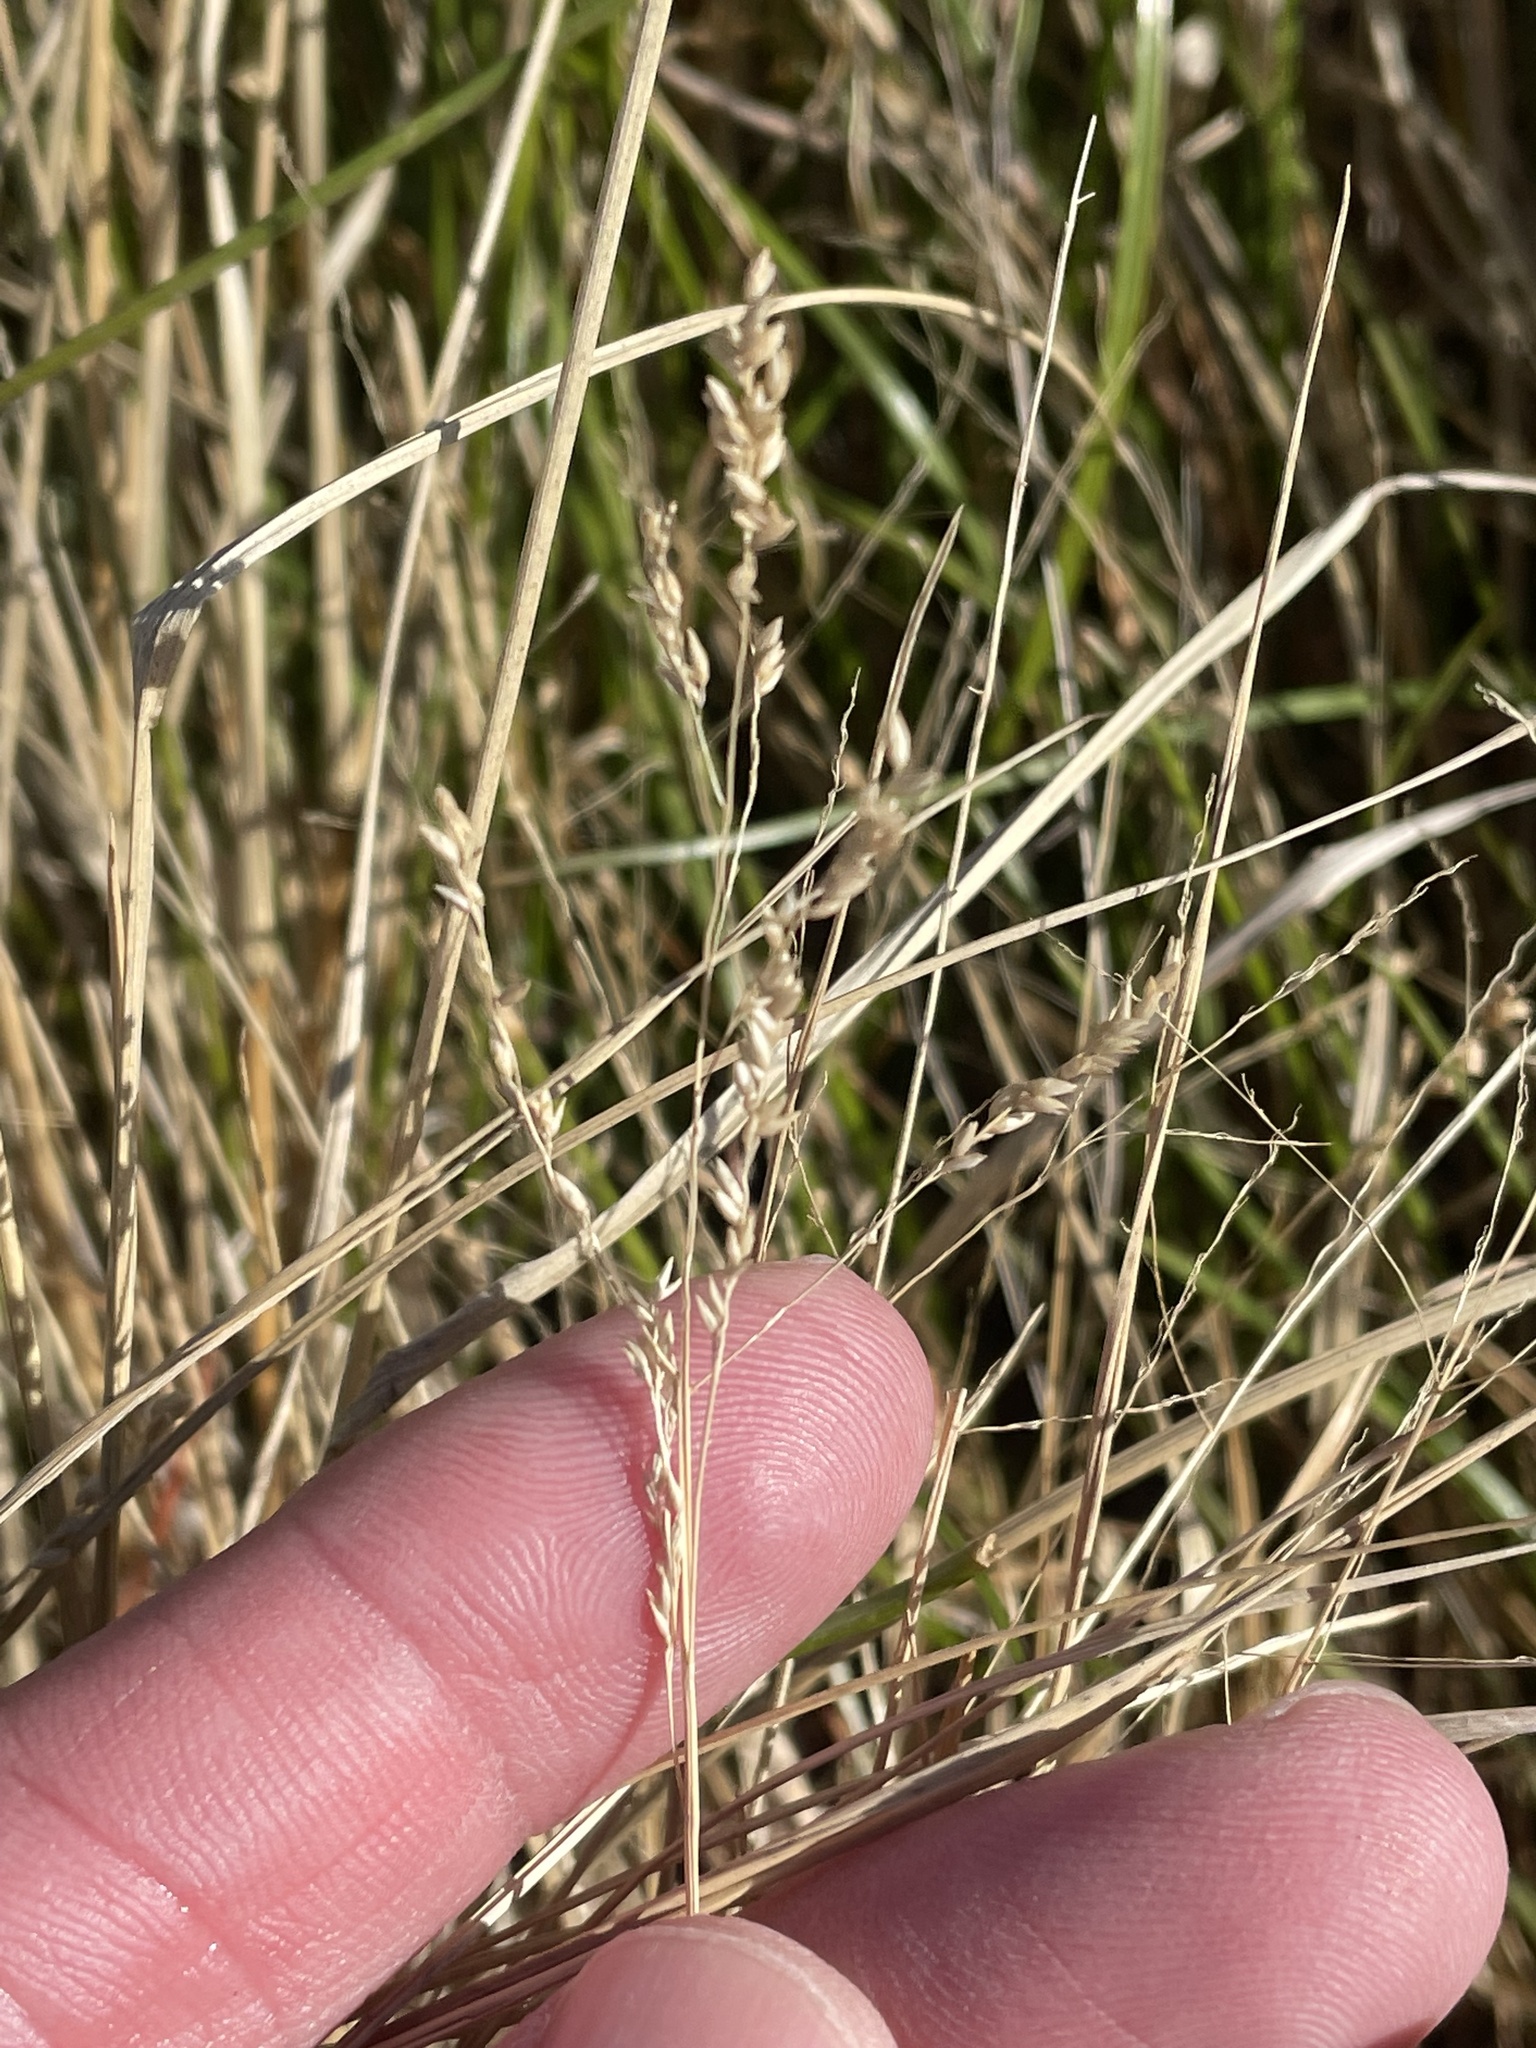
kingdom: Plantae
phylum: Tracheophyta
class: Liliopsida
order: Poales
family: Poaceae
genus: Steinchisma
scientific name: Steinchisma hians
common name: Gaping panic grass
